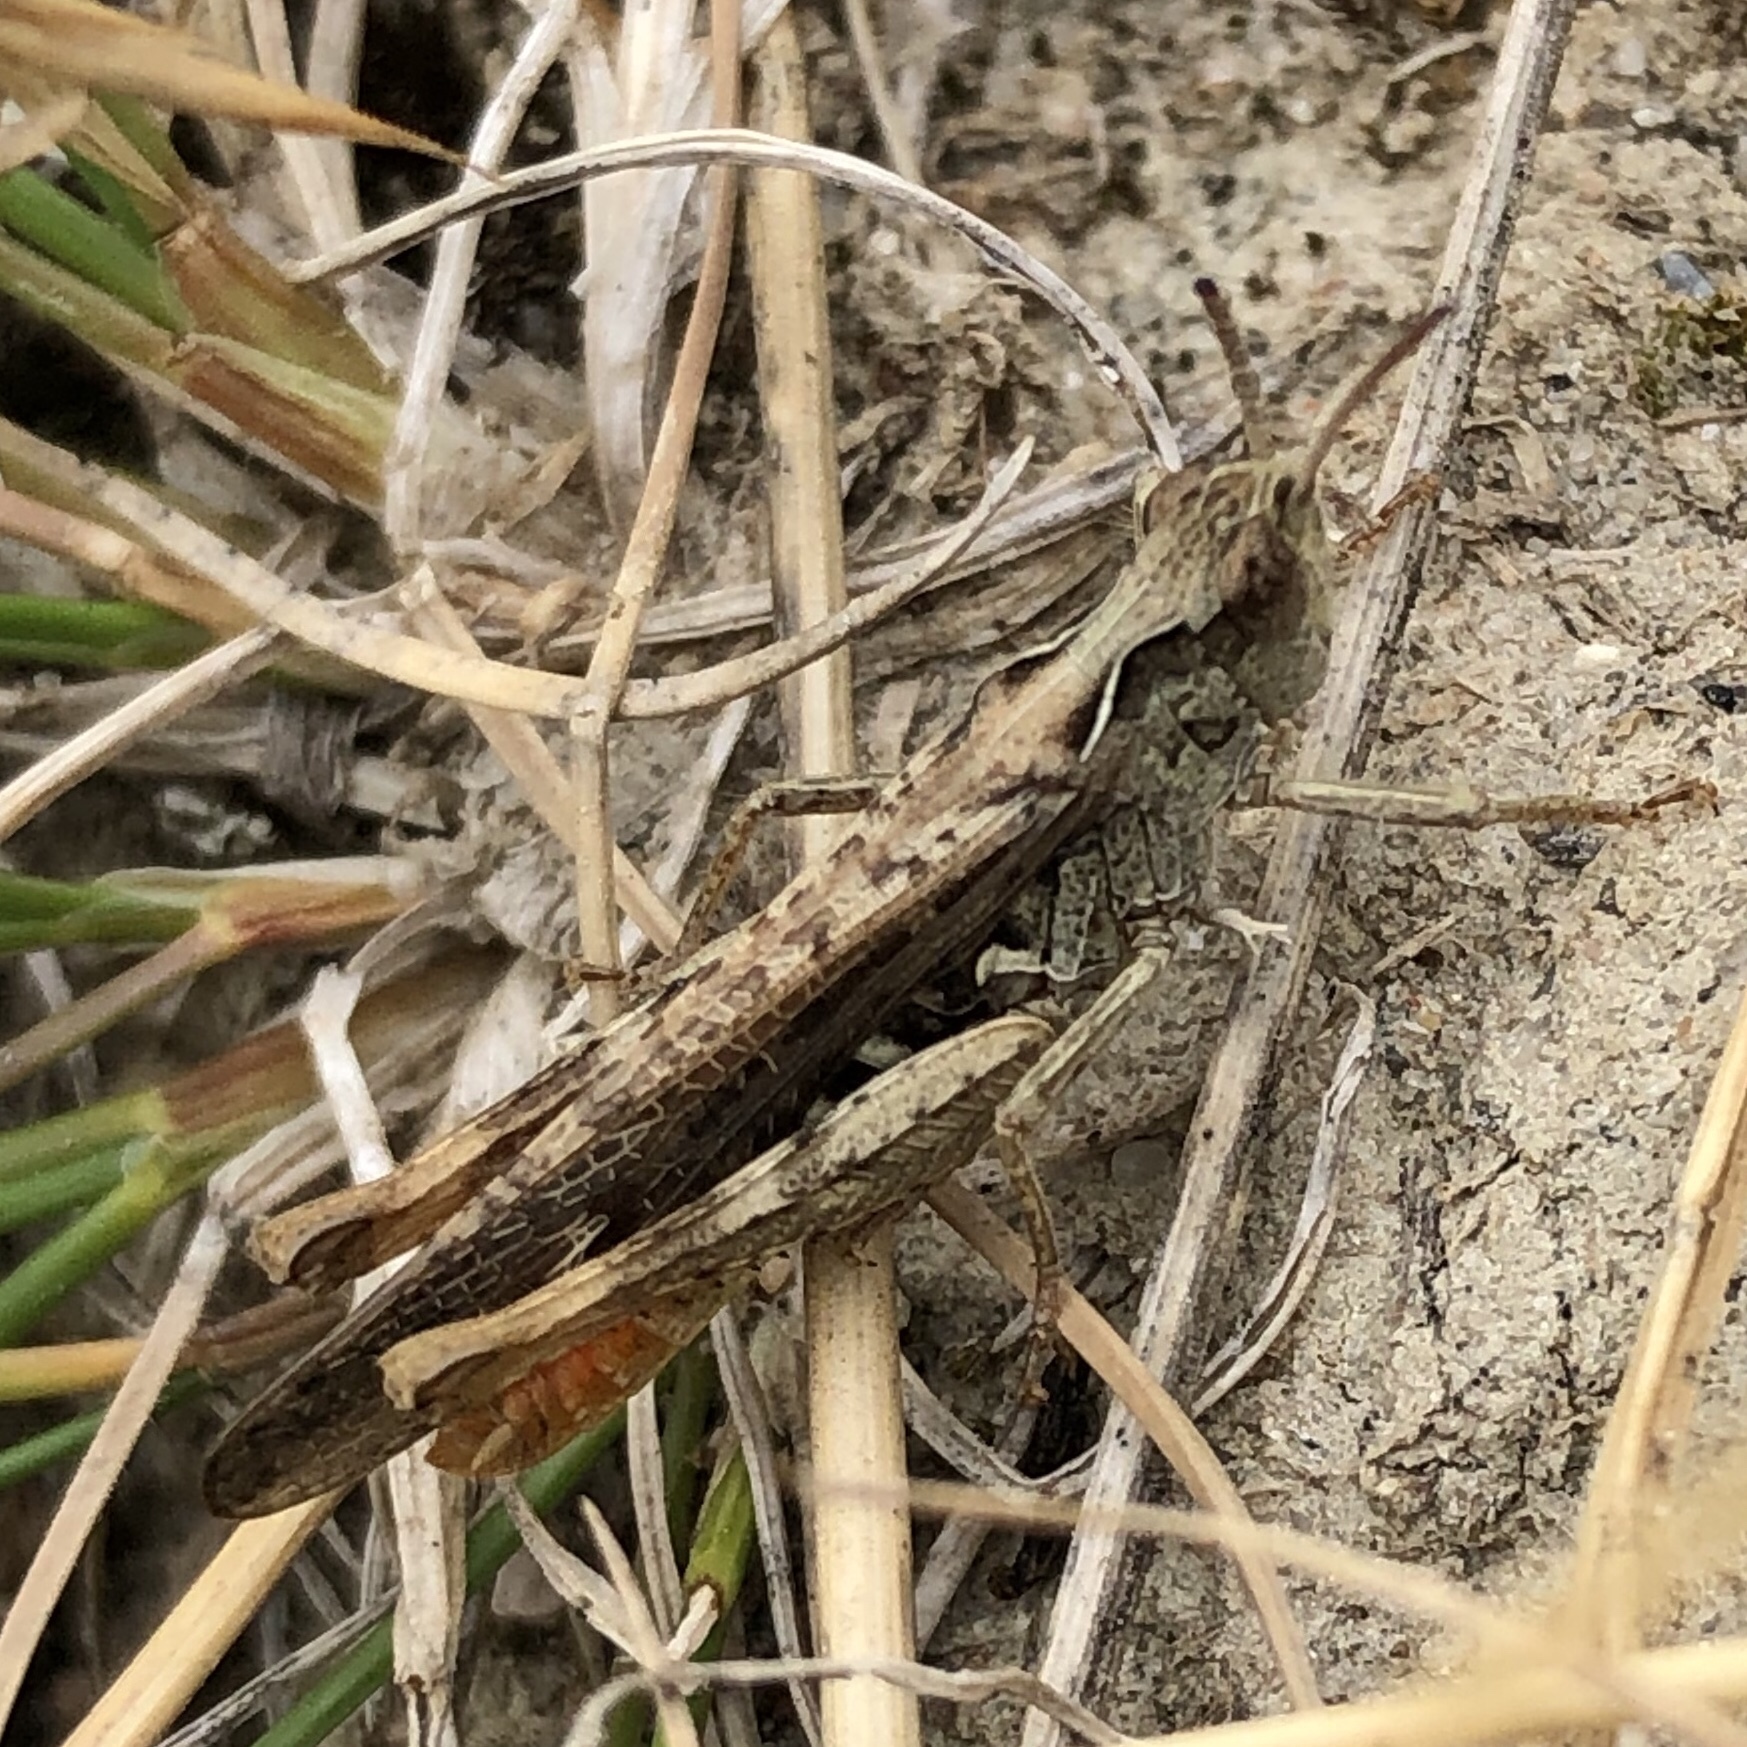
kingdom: Animalia
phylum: Arthropoda
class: Insecta
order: Orthoptera
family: Acrididae
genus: Chorthippus
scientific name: Chorthippus brunneus
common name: Field grasshopper
